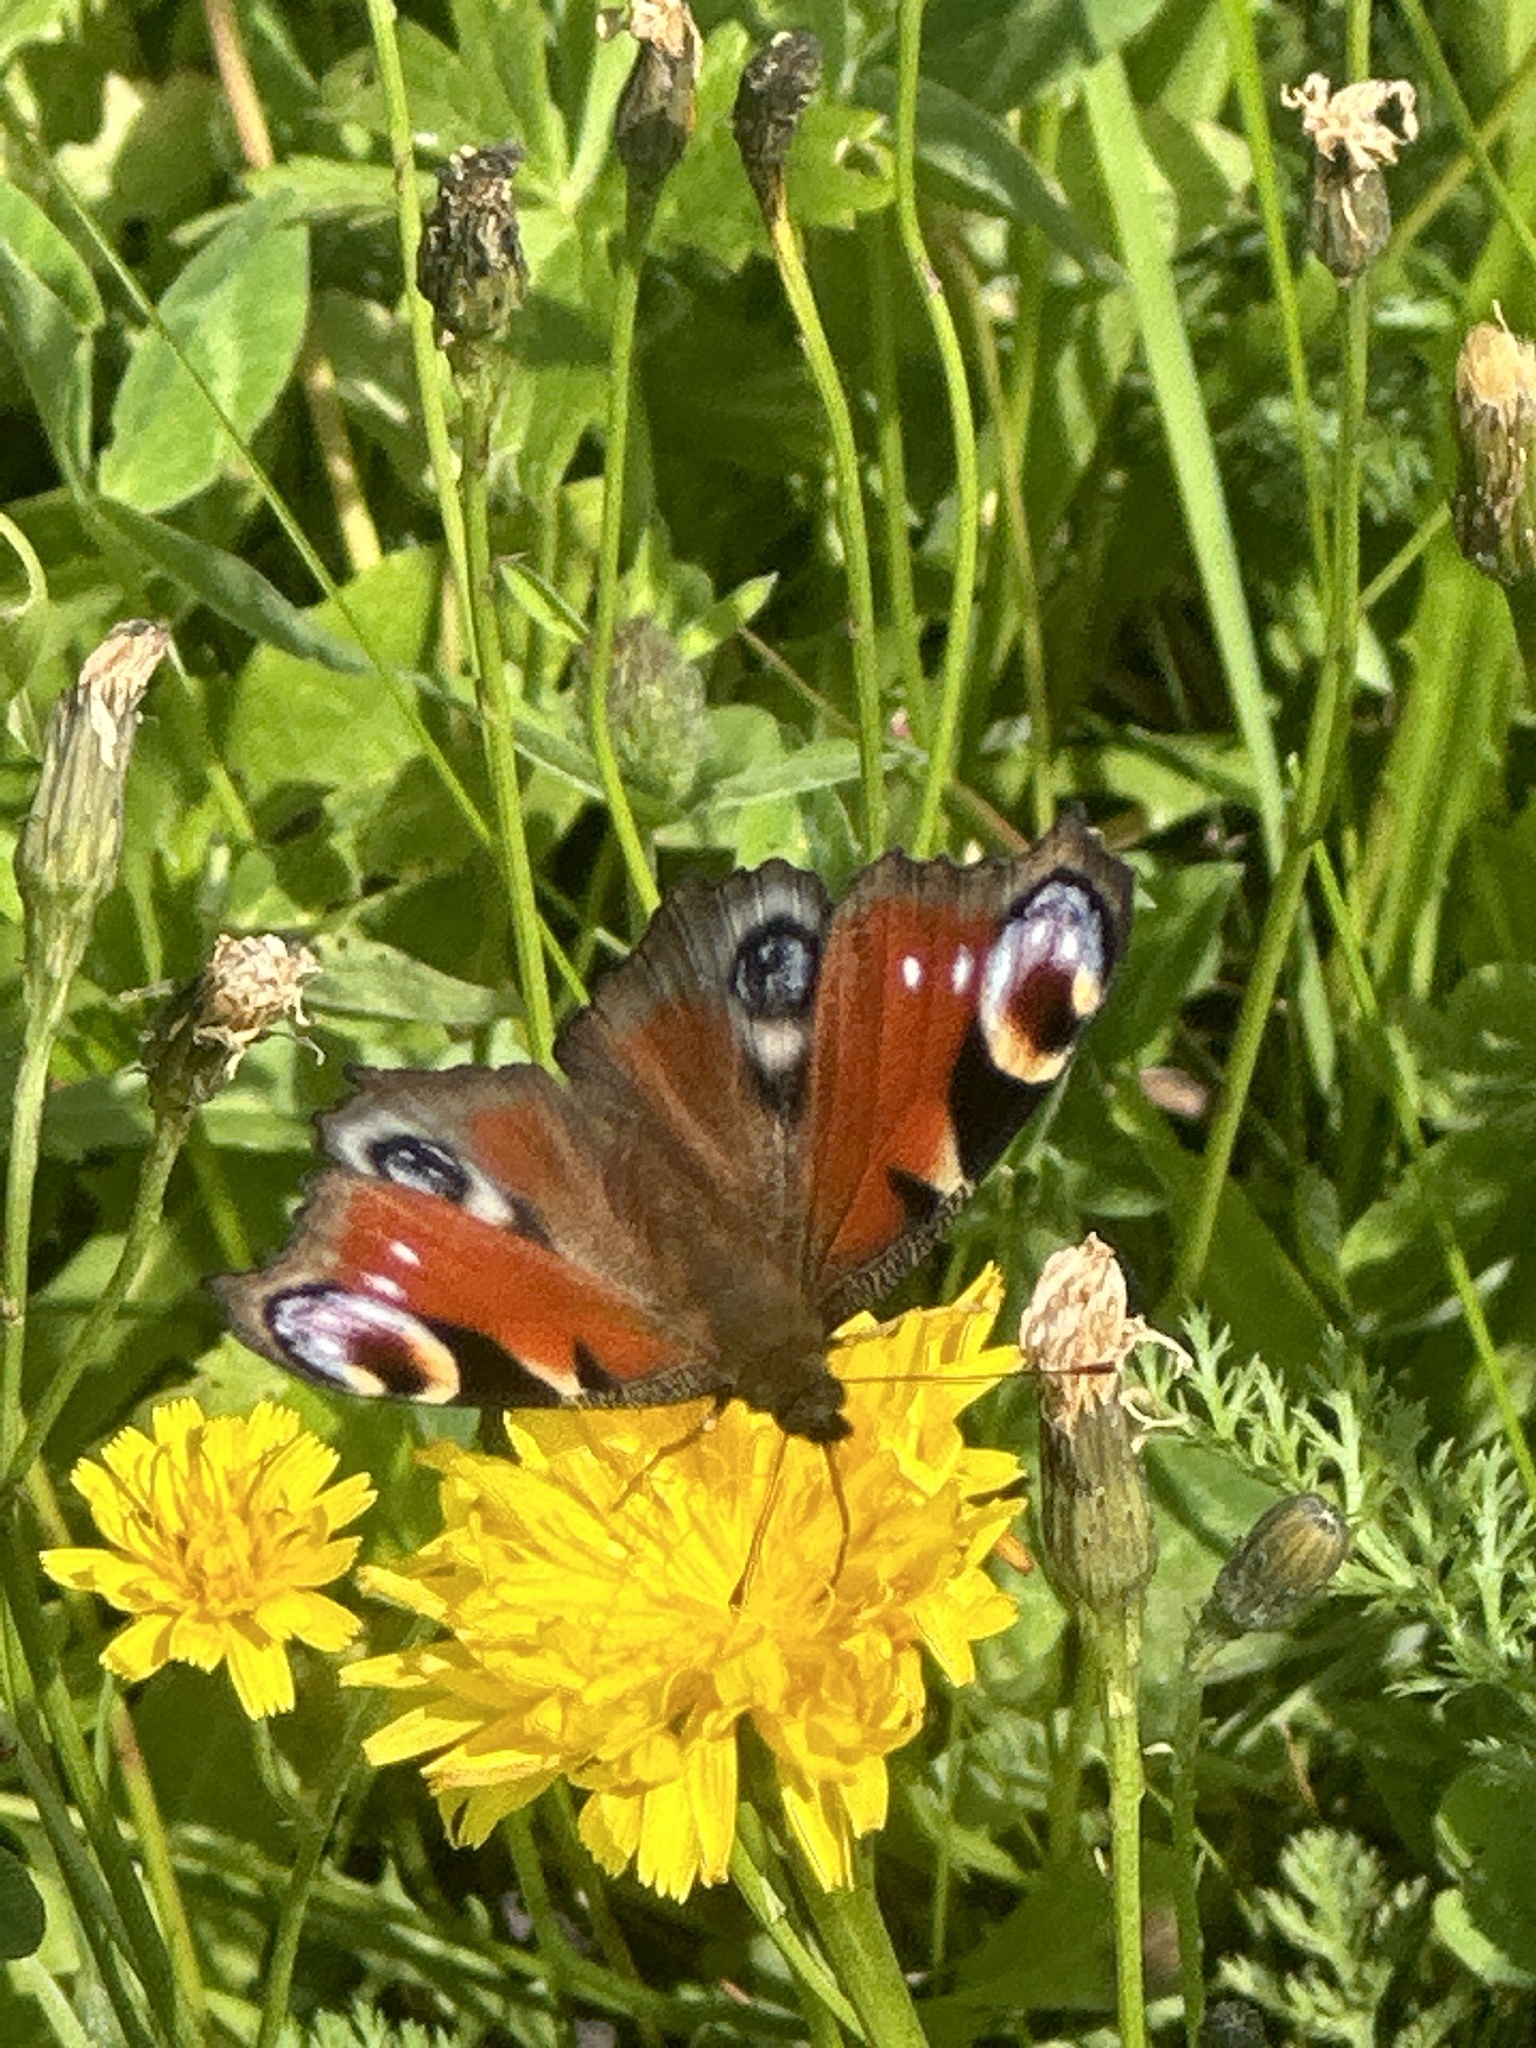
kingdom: Animalia
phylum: Arthropoda
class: Insecta
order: Lepidoptera
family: Nymphalidae
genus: Aglais
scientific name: Aglais io
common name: Peacock
